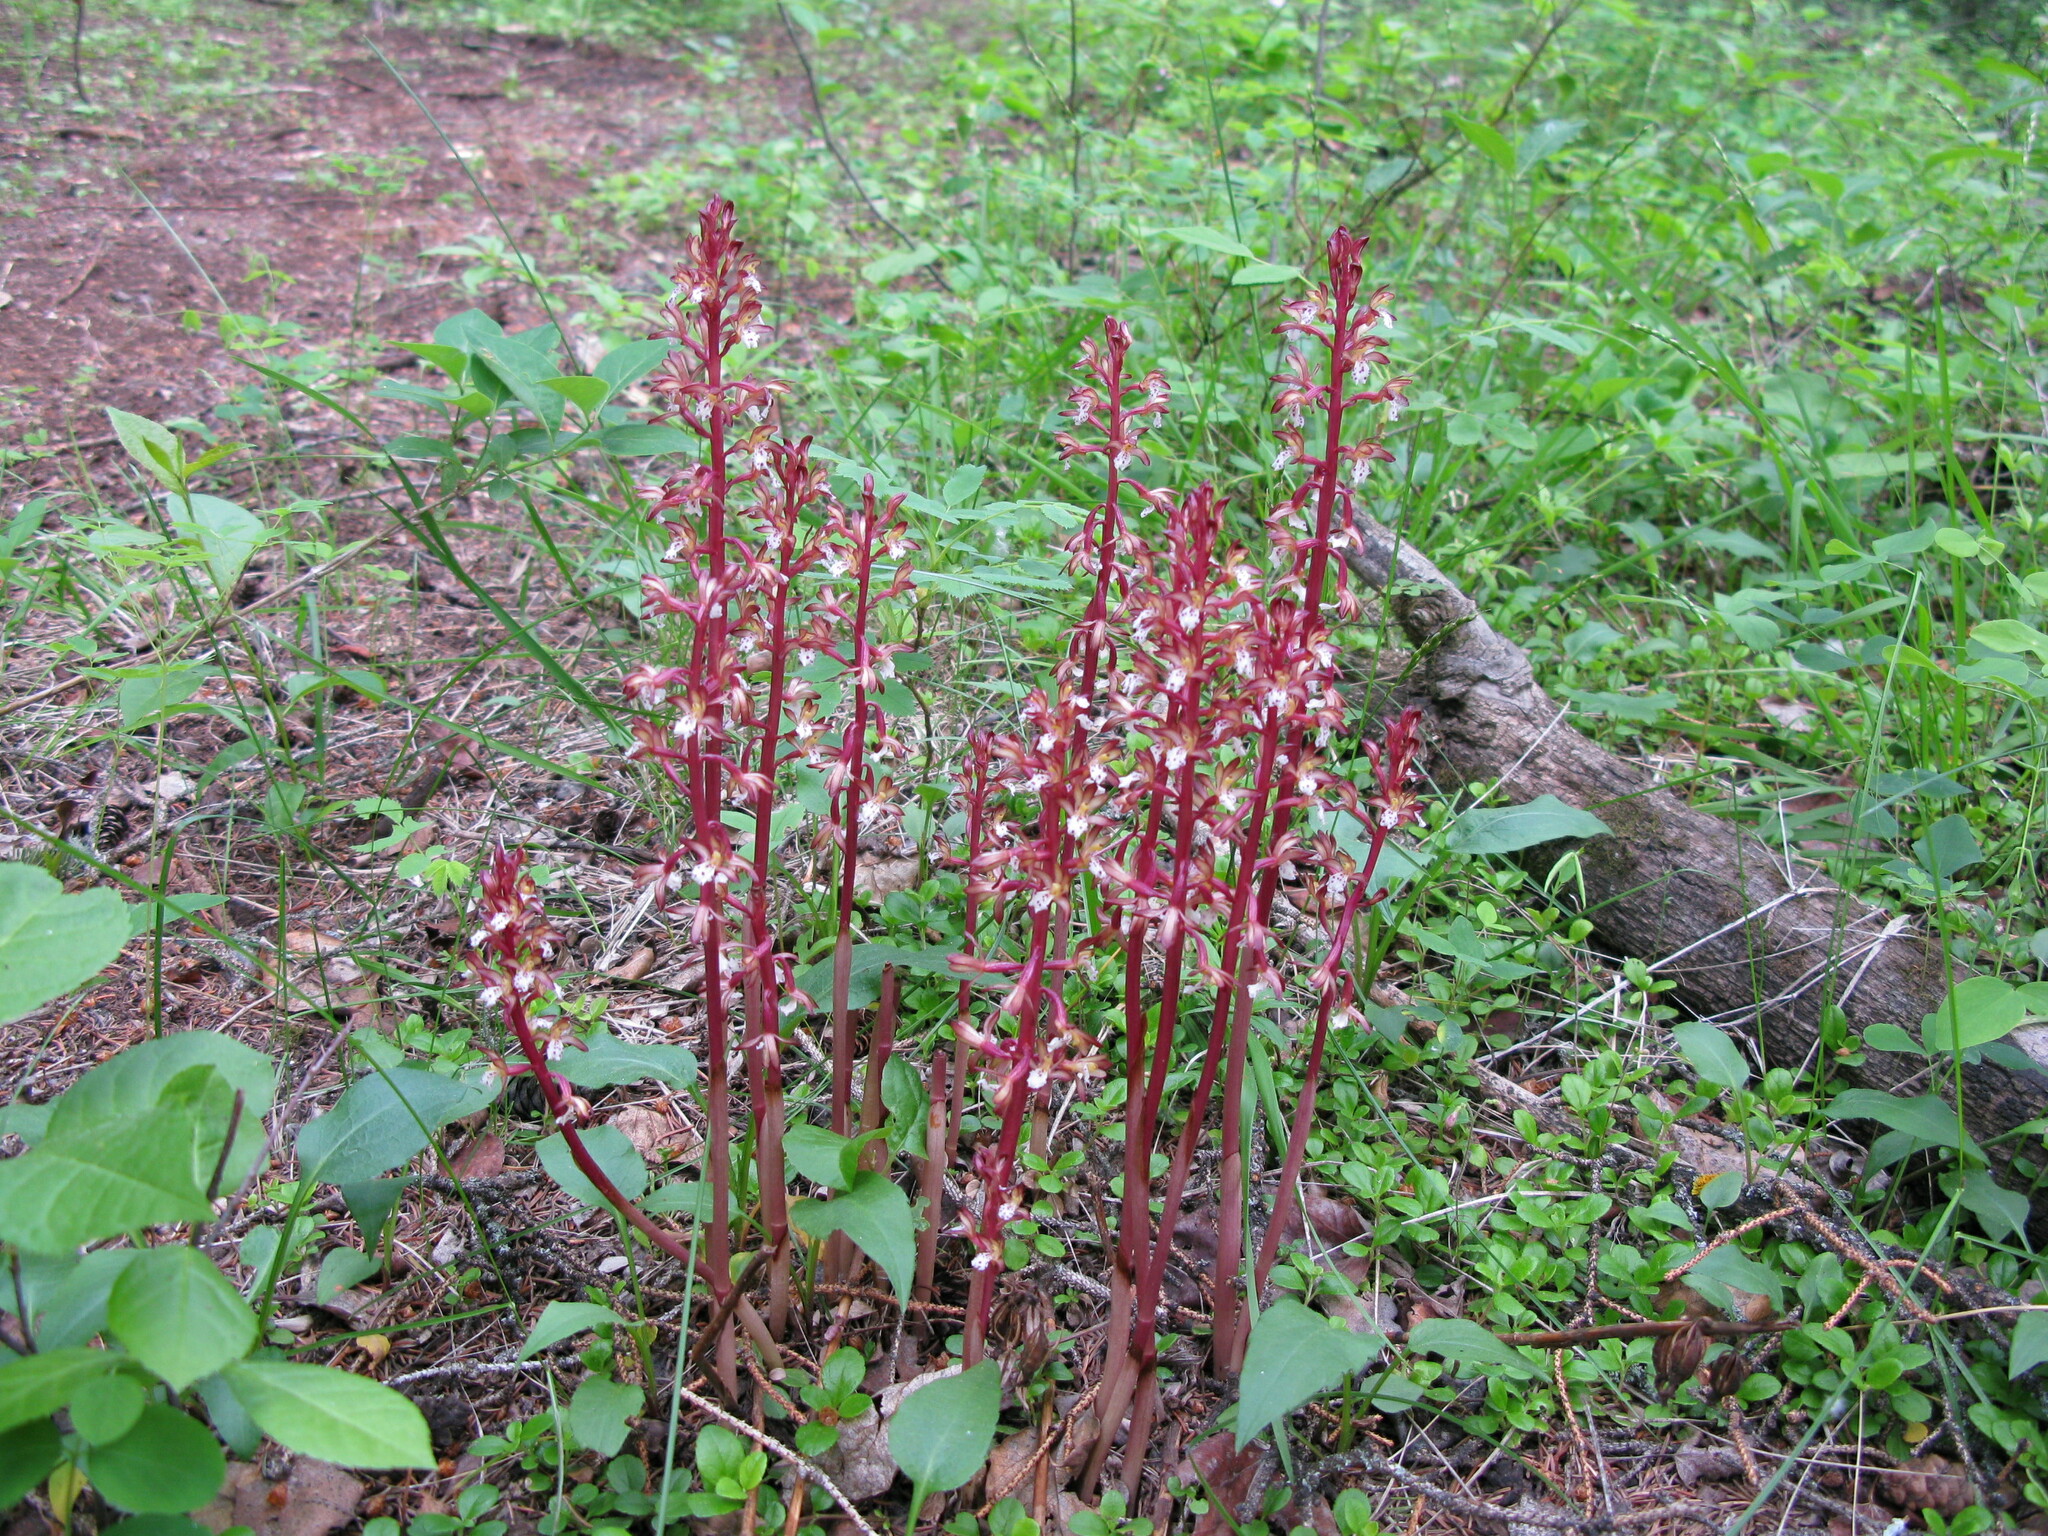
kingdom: Plantae
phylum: Tracheophyta
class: Liliopsida
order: Asparagales
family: Orchidaceae
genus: Corallorhiza
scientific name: Corallorhiza maculata
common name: Spotted coralroot
